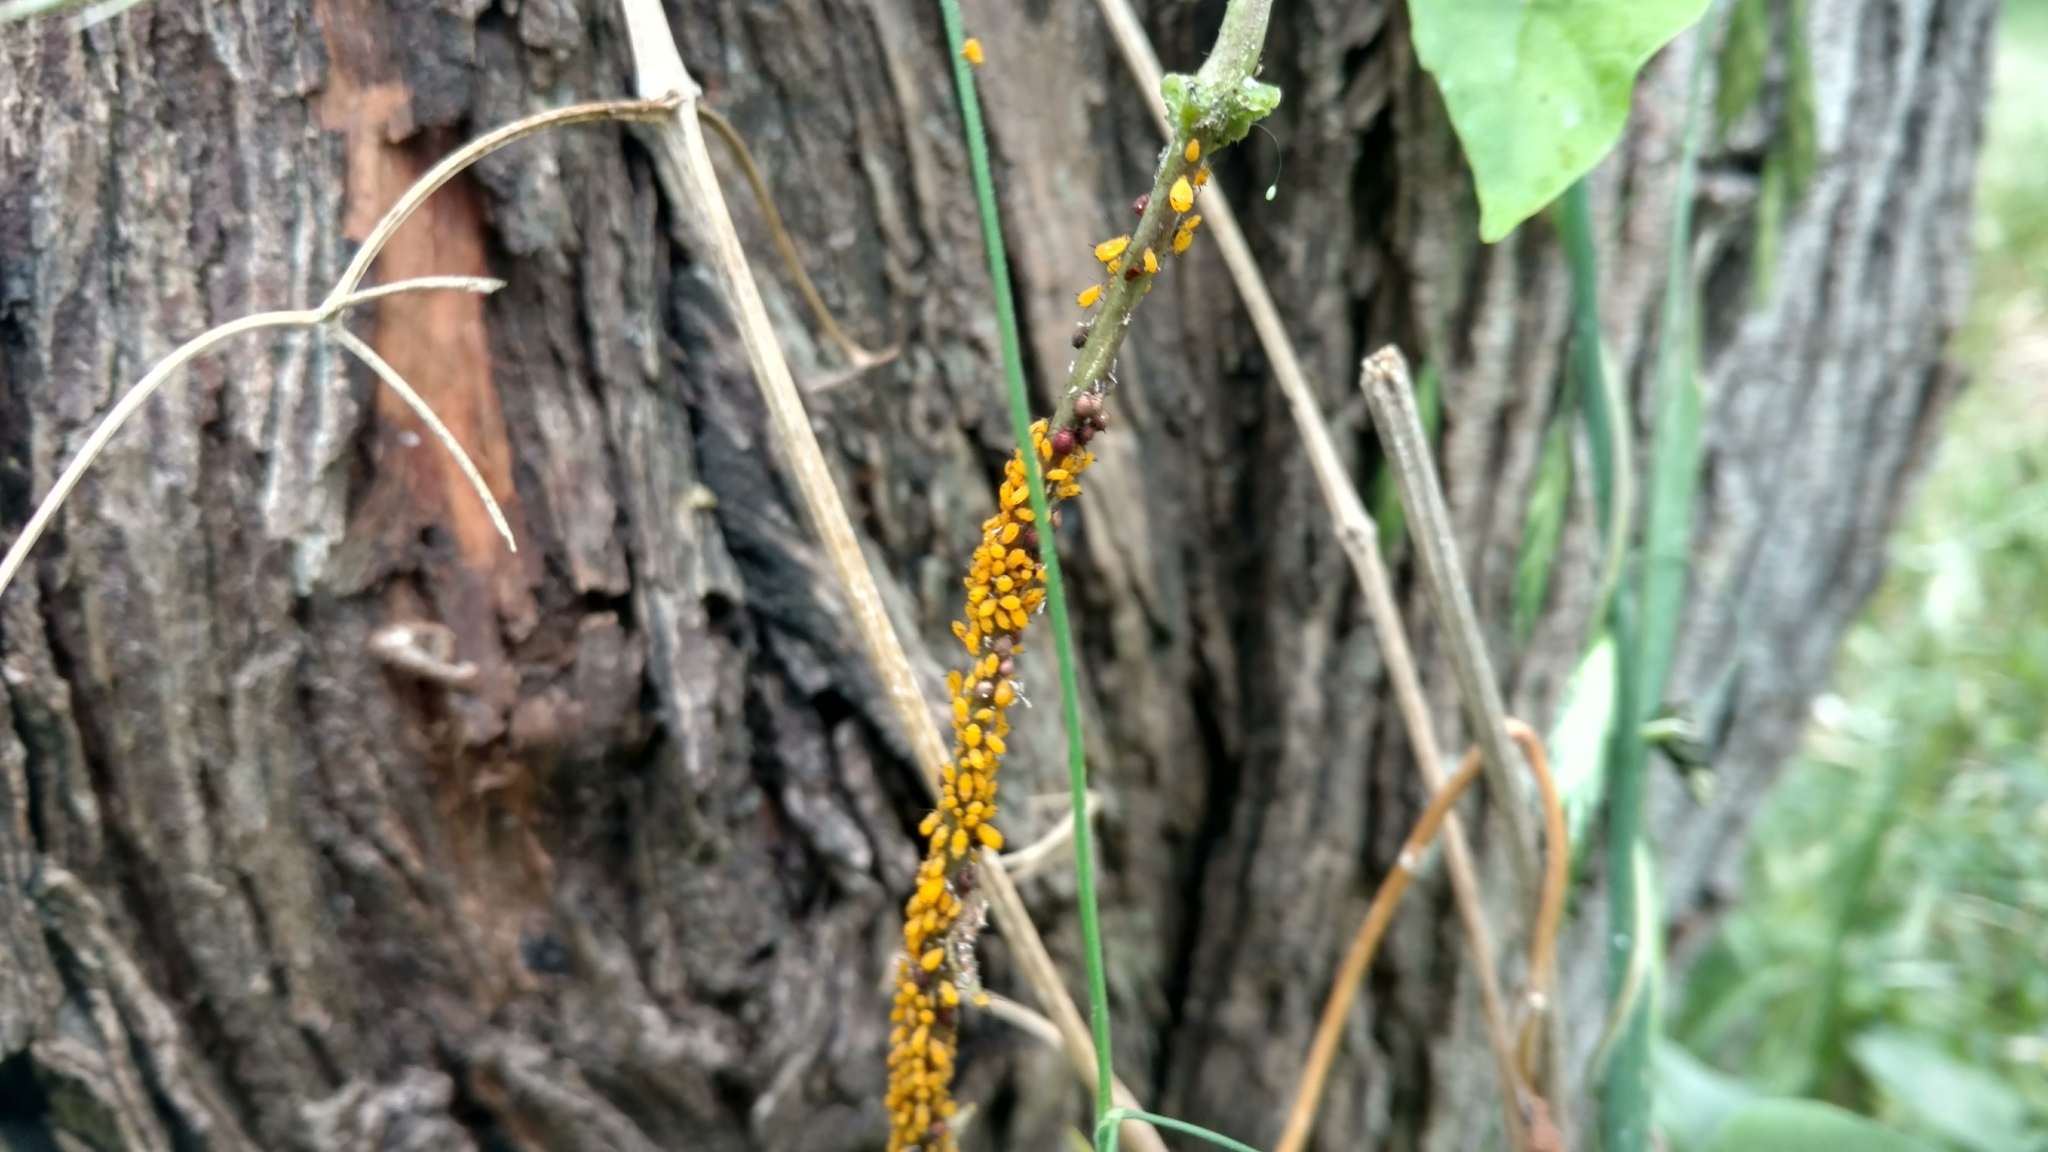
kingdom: Animalia
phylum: Arthropoda
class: Insecta
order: Hemiptera
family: Aphididae
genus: Aphis
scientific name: Aphis nerii
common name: Oleander aphid
